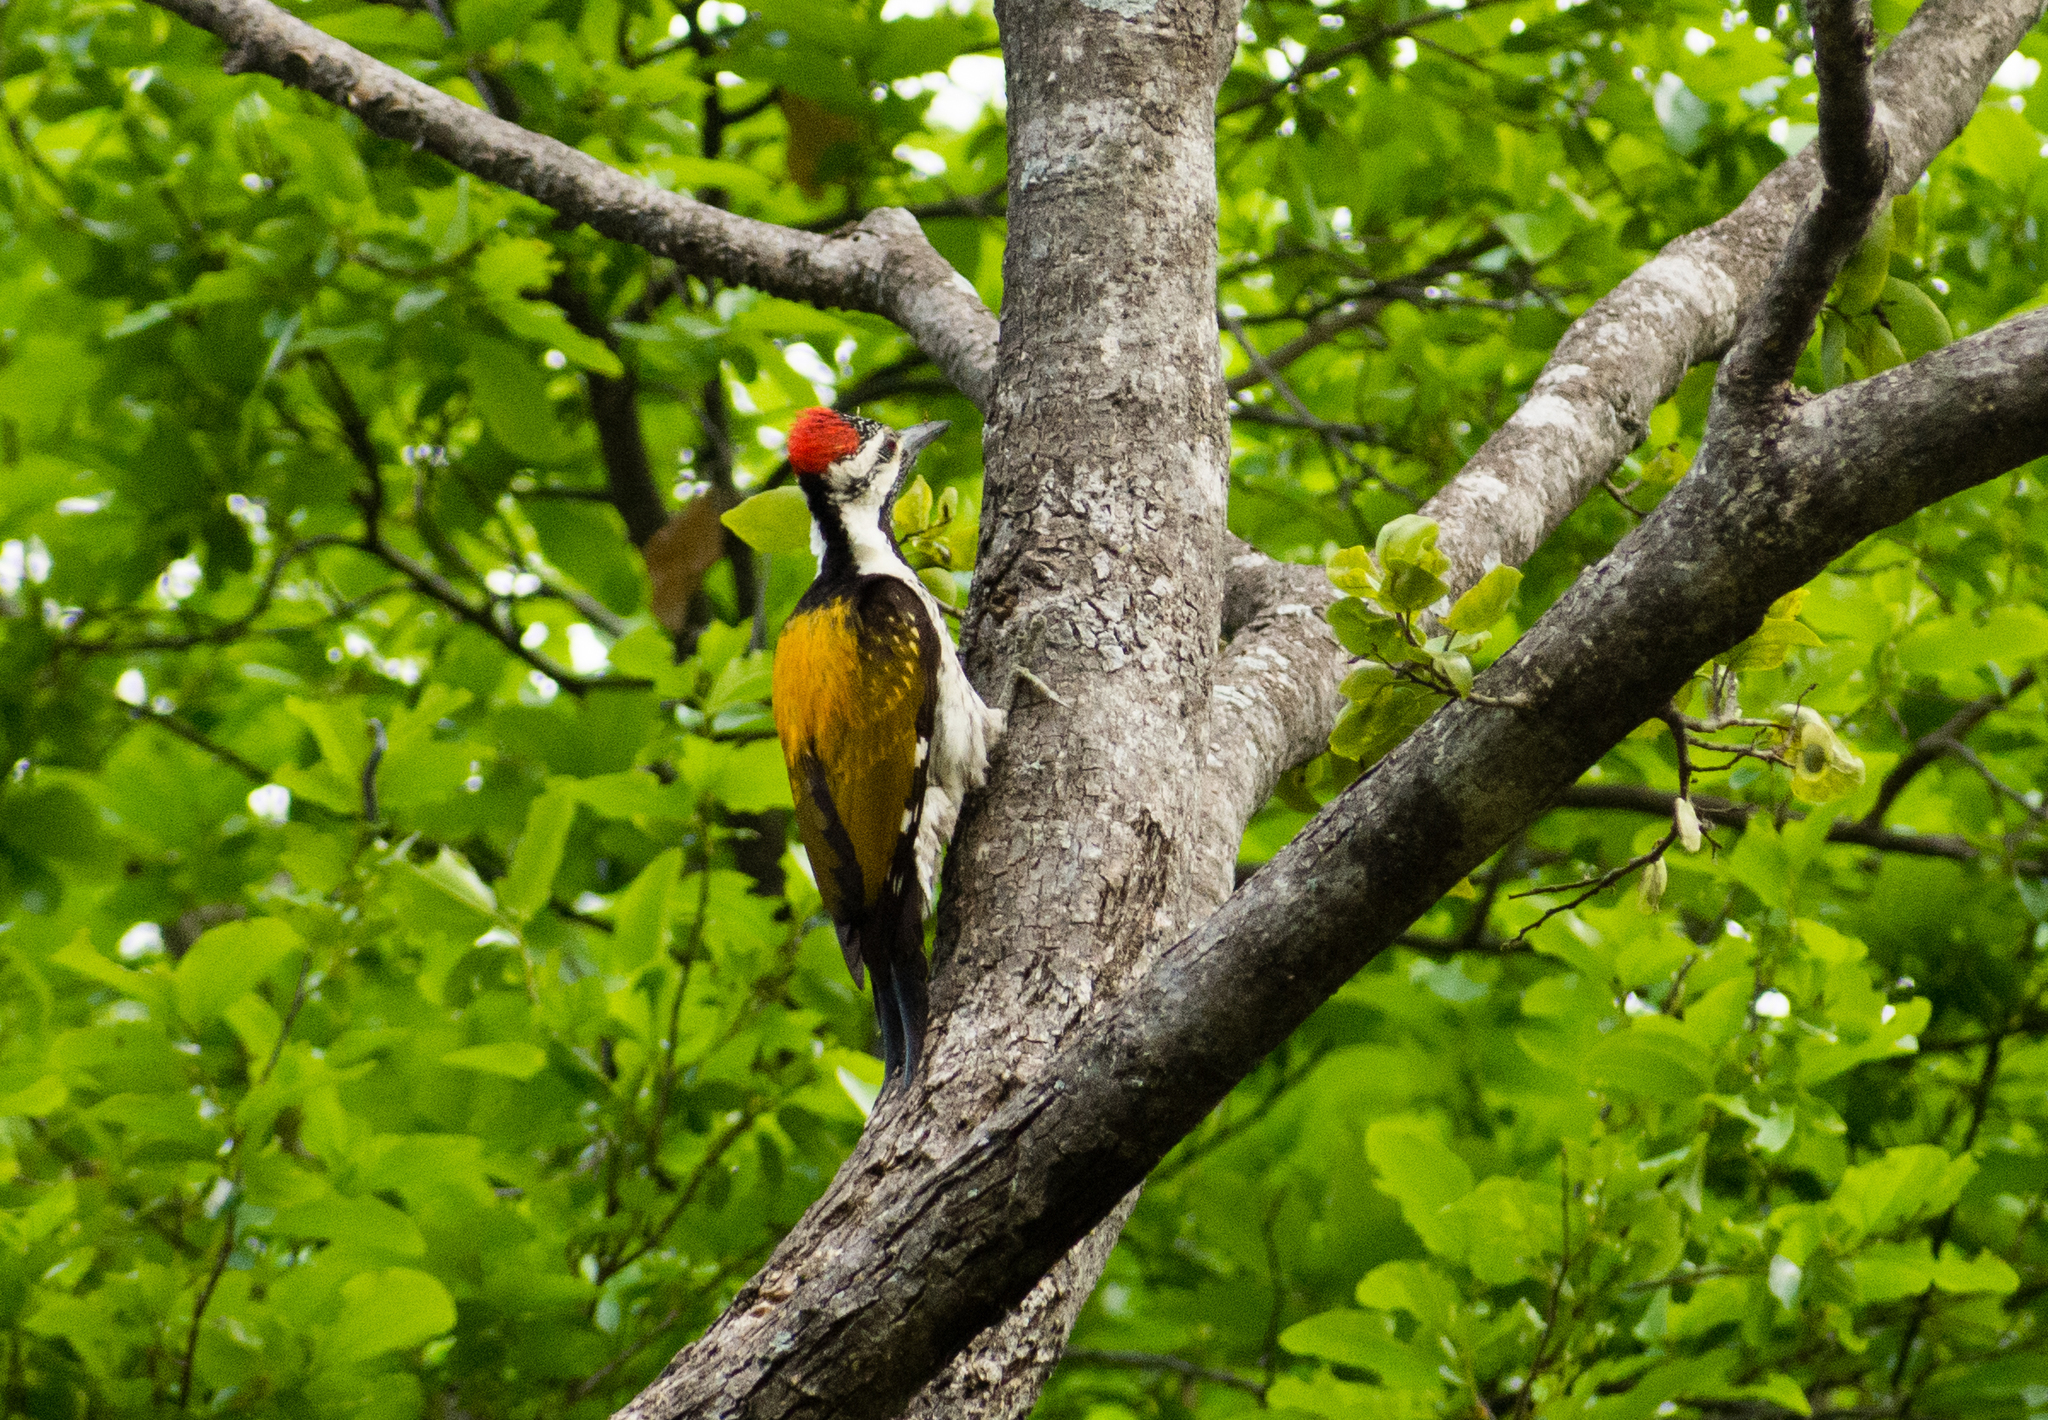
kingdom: Animalia
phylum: Chordata
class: Aves
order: Piciformes
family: Picidae
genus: Dinopium
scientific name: Dinopium benghalense
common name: Black-rumped flameback
